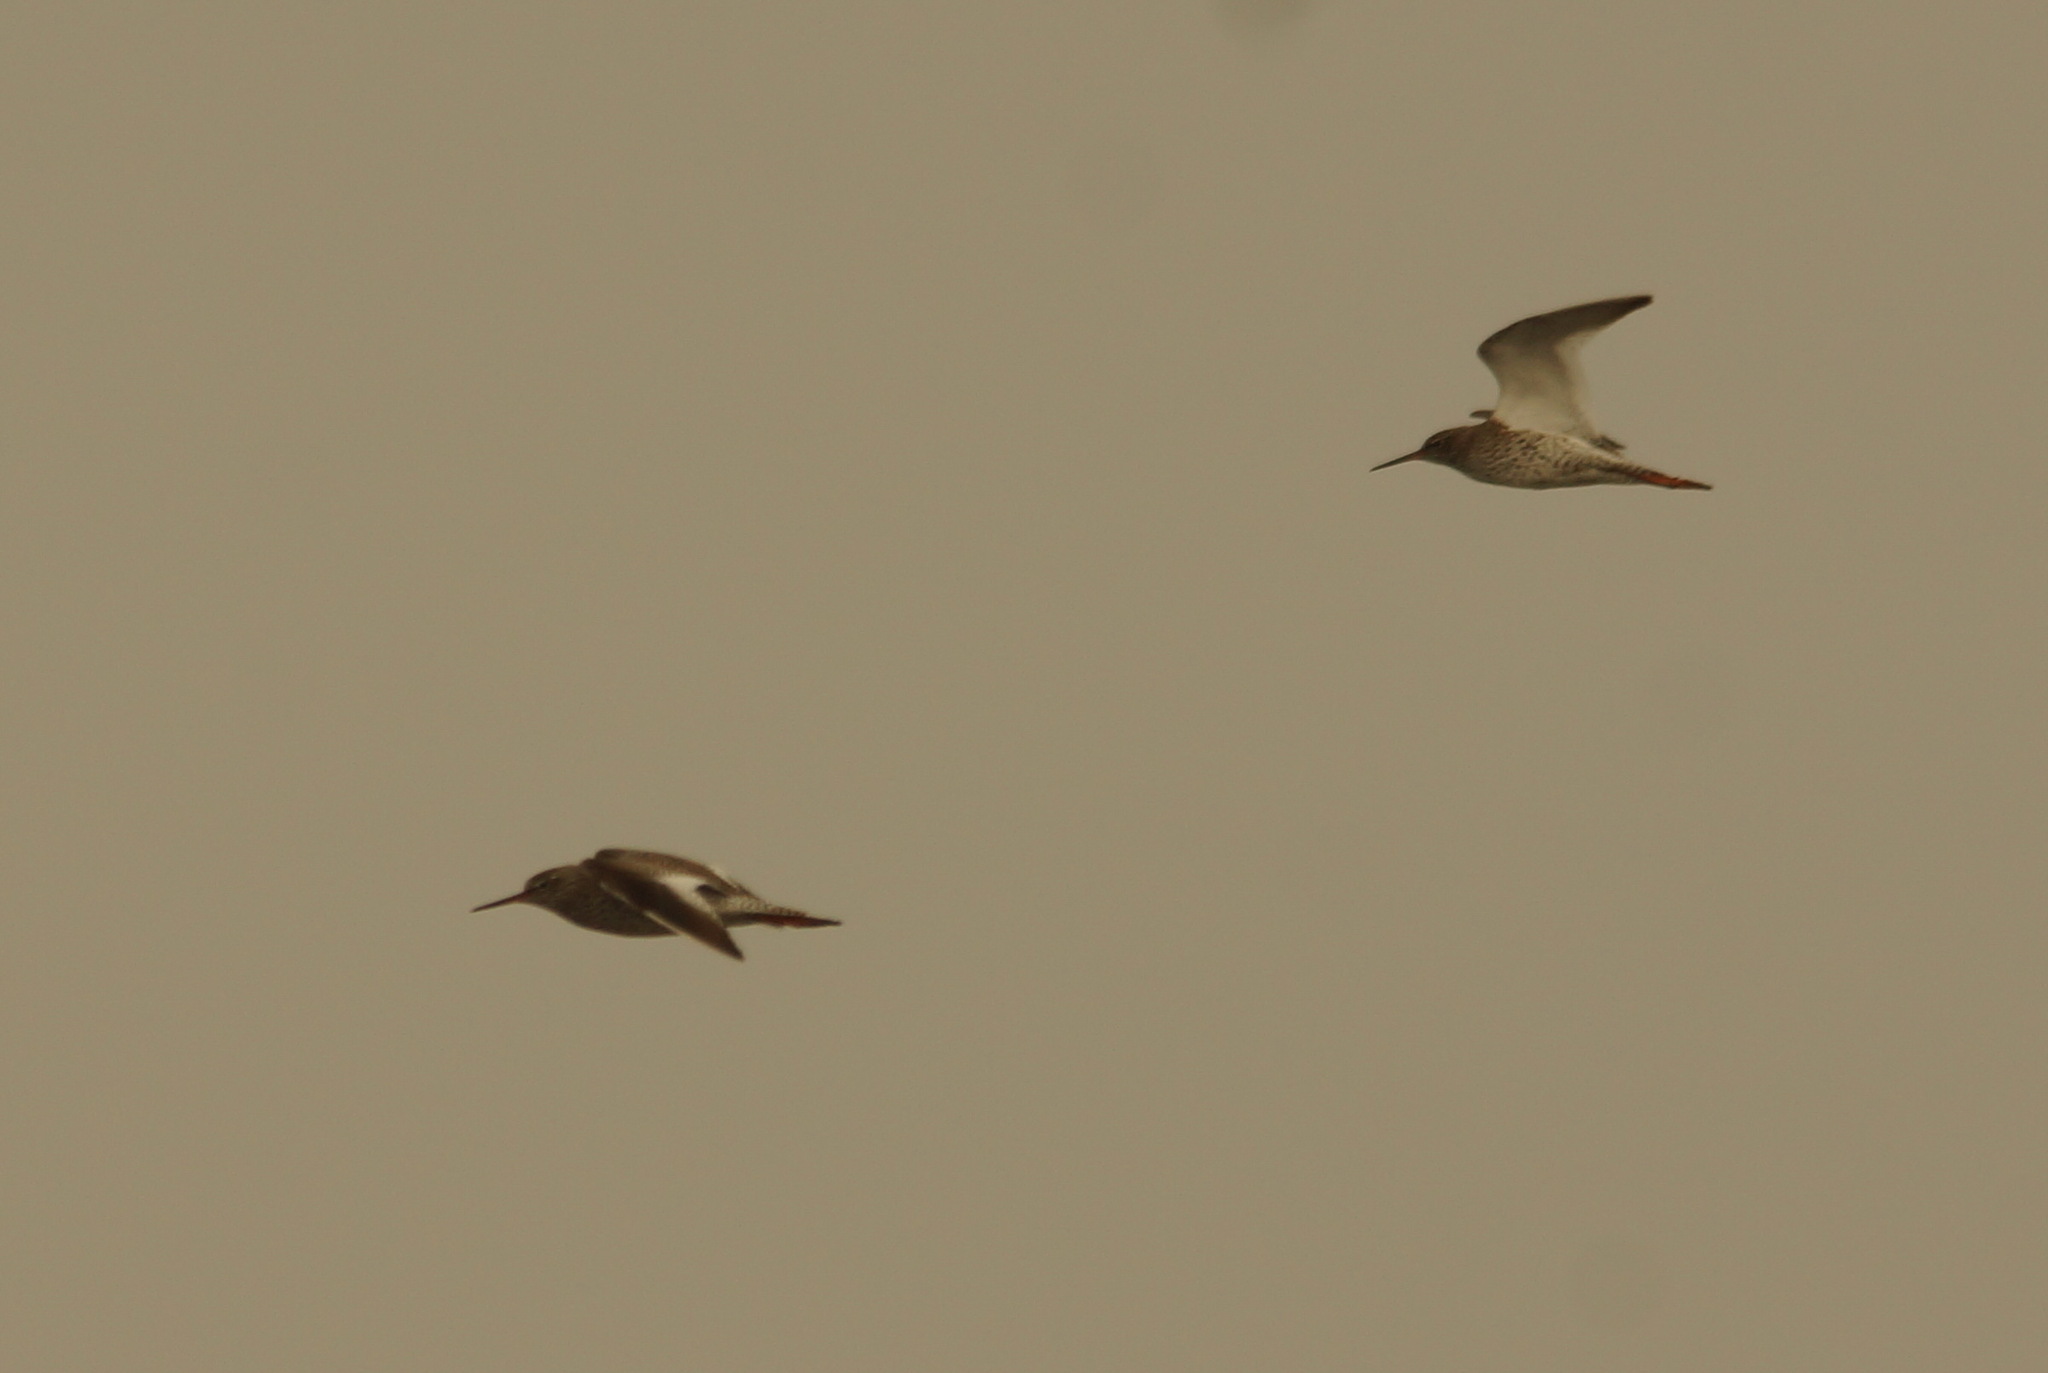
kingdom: Animalia
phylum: Chordata
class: Aves
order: Charadriiformes
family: Scolopacidae
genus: Tringa
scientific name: Tringa totanus
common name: Common redshank
